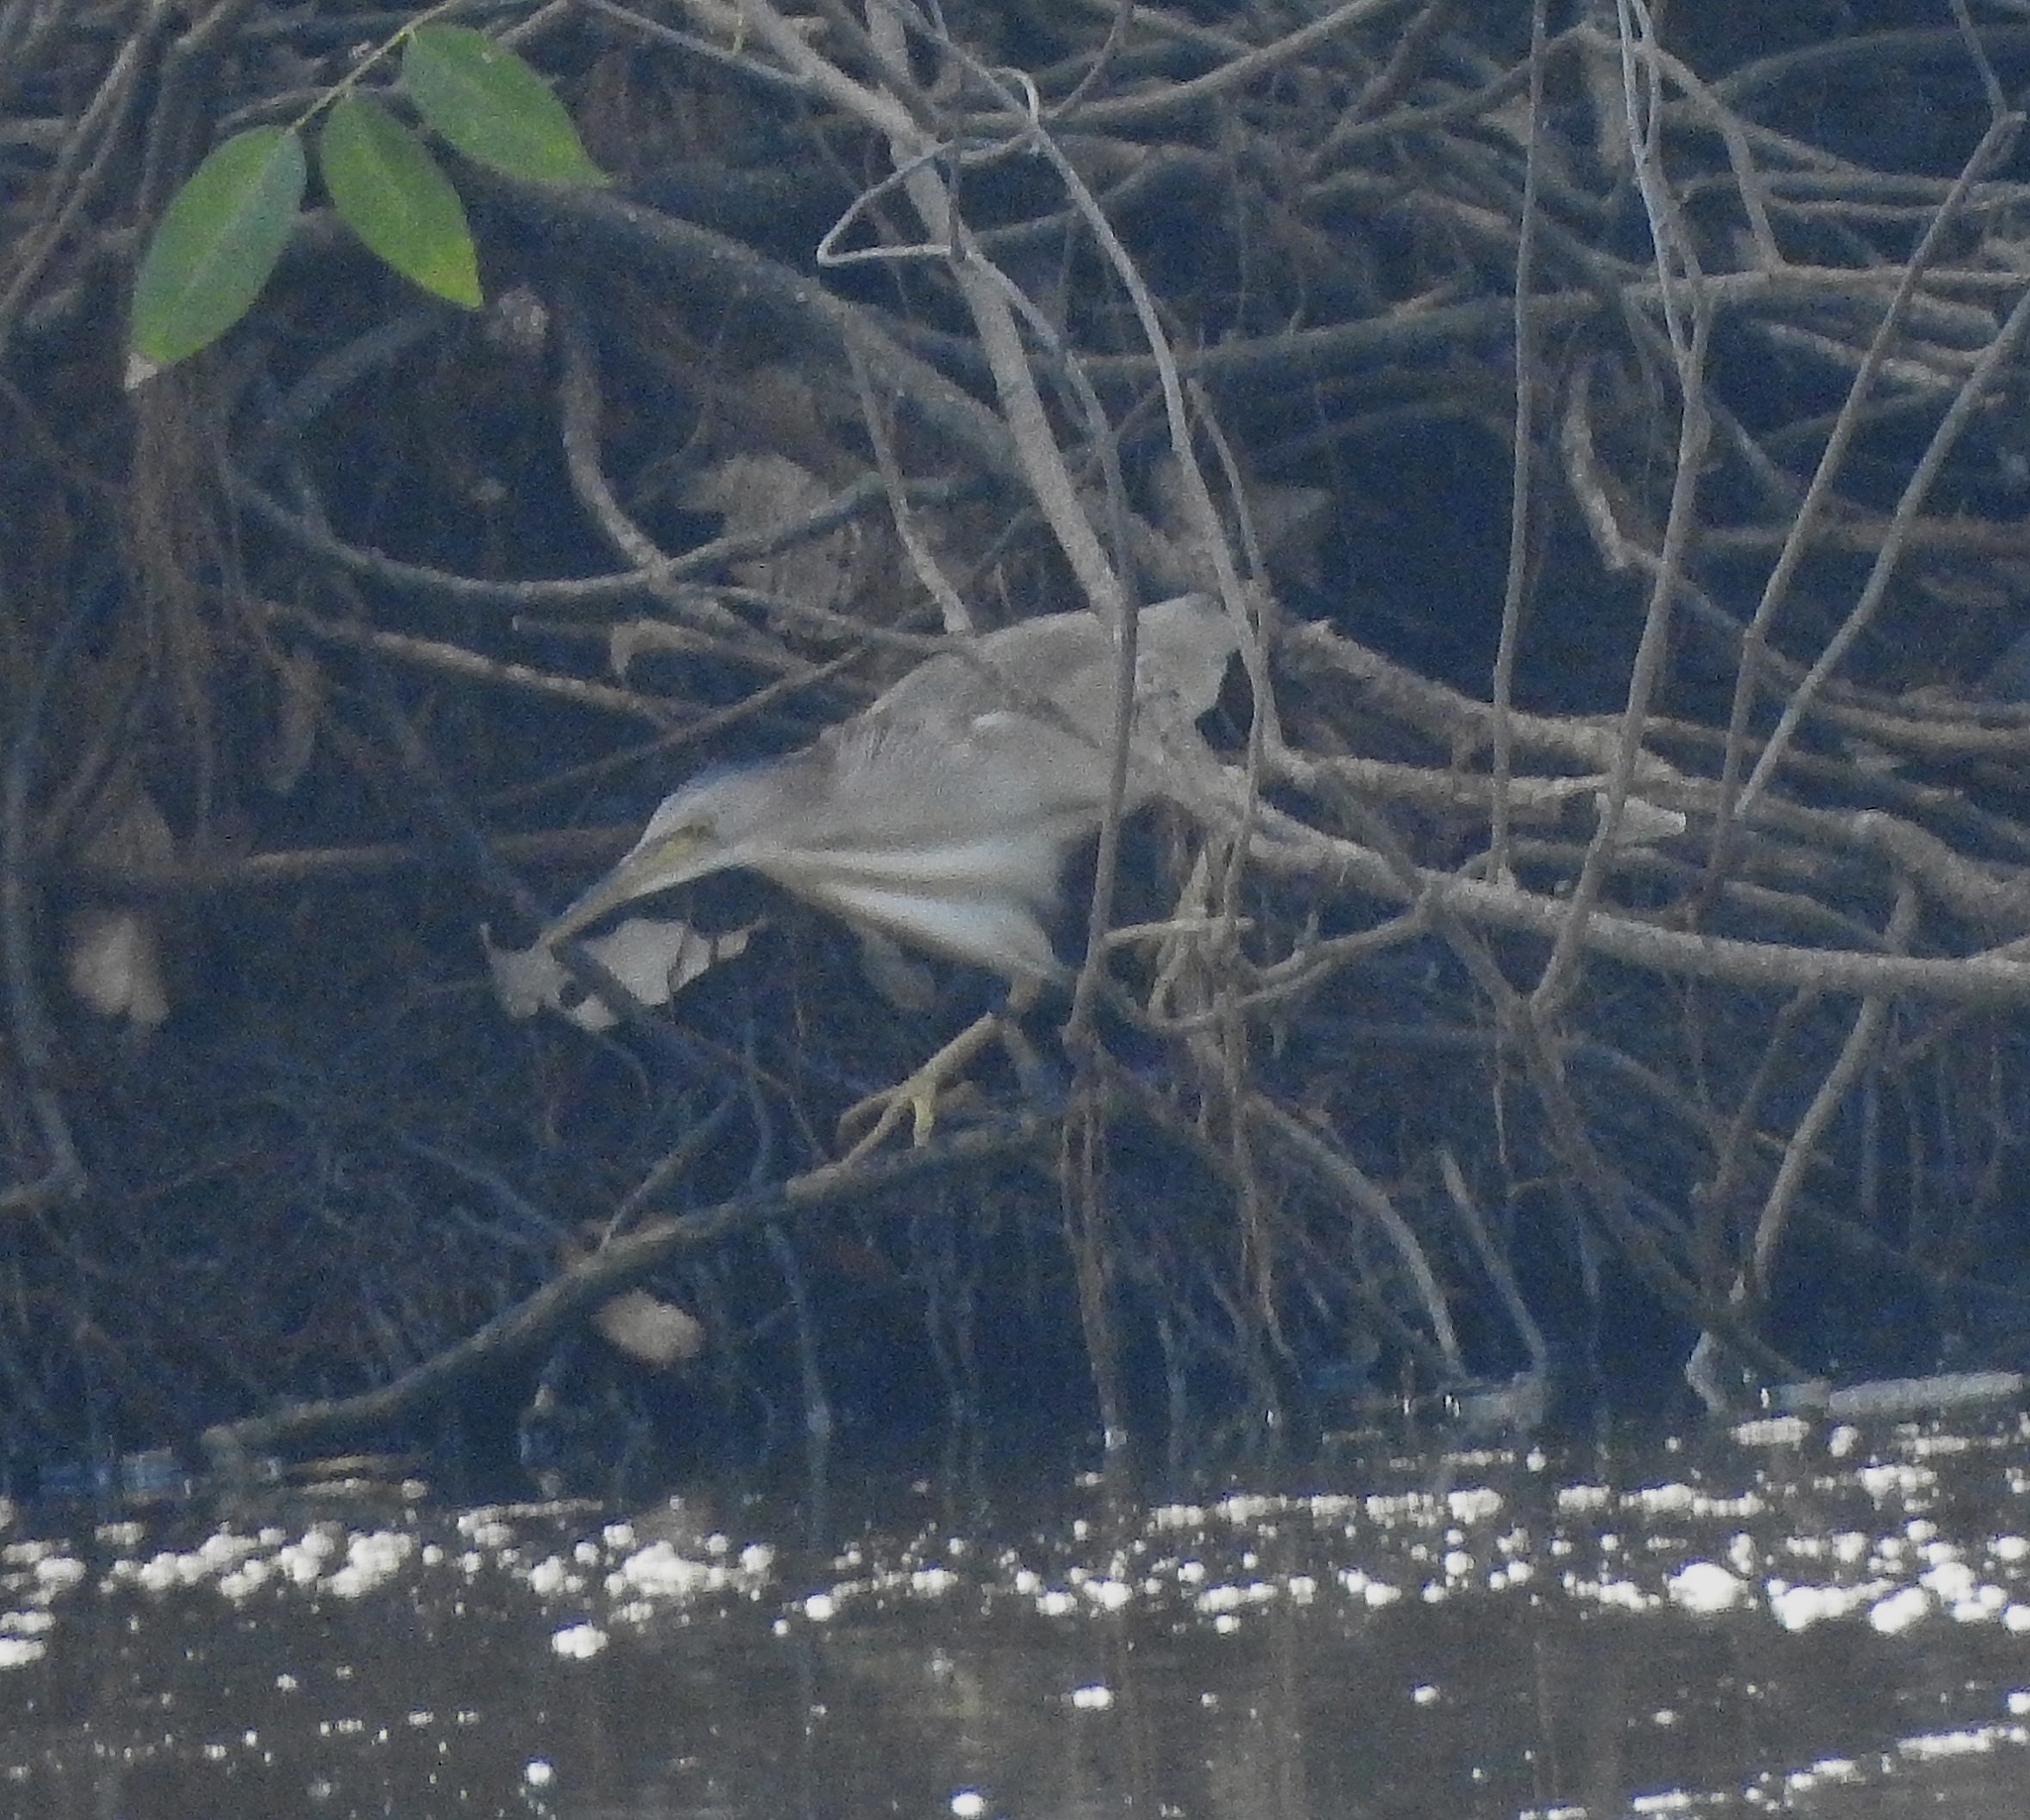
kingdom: Animalia
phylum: Chordata
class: Aves
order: Pelecaniformes
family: Ardeidae
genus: Ixobrychus
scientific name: Ixobrychus sinensis
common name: Yellow bittern
